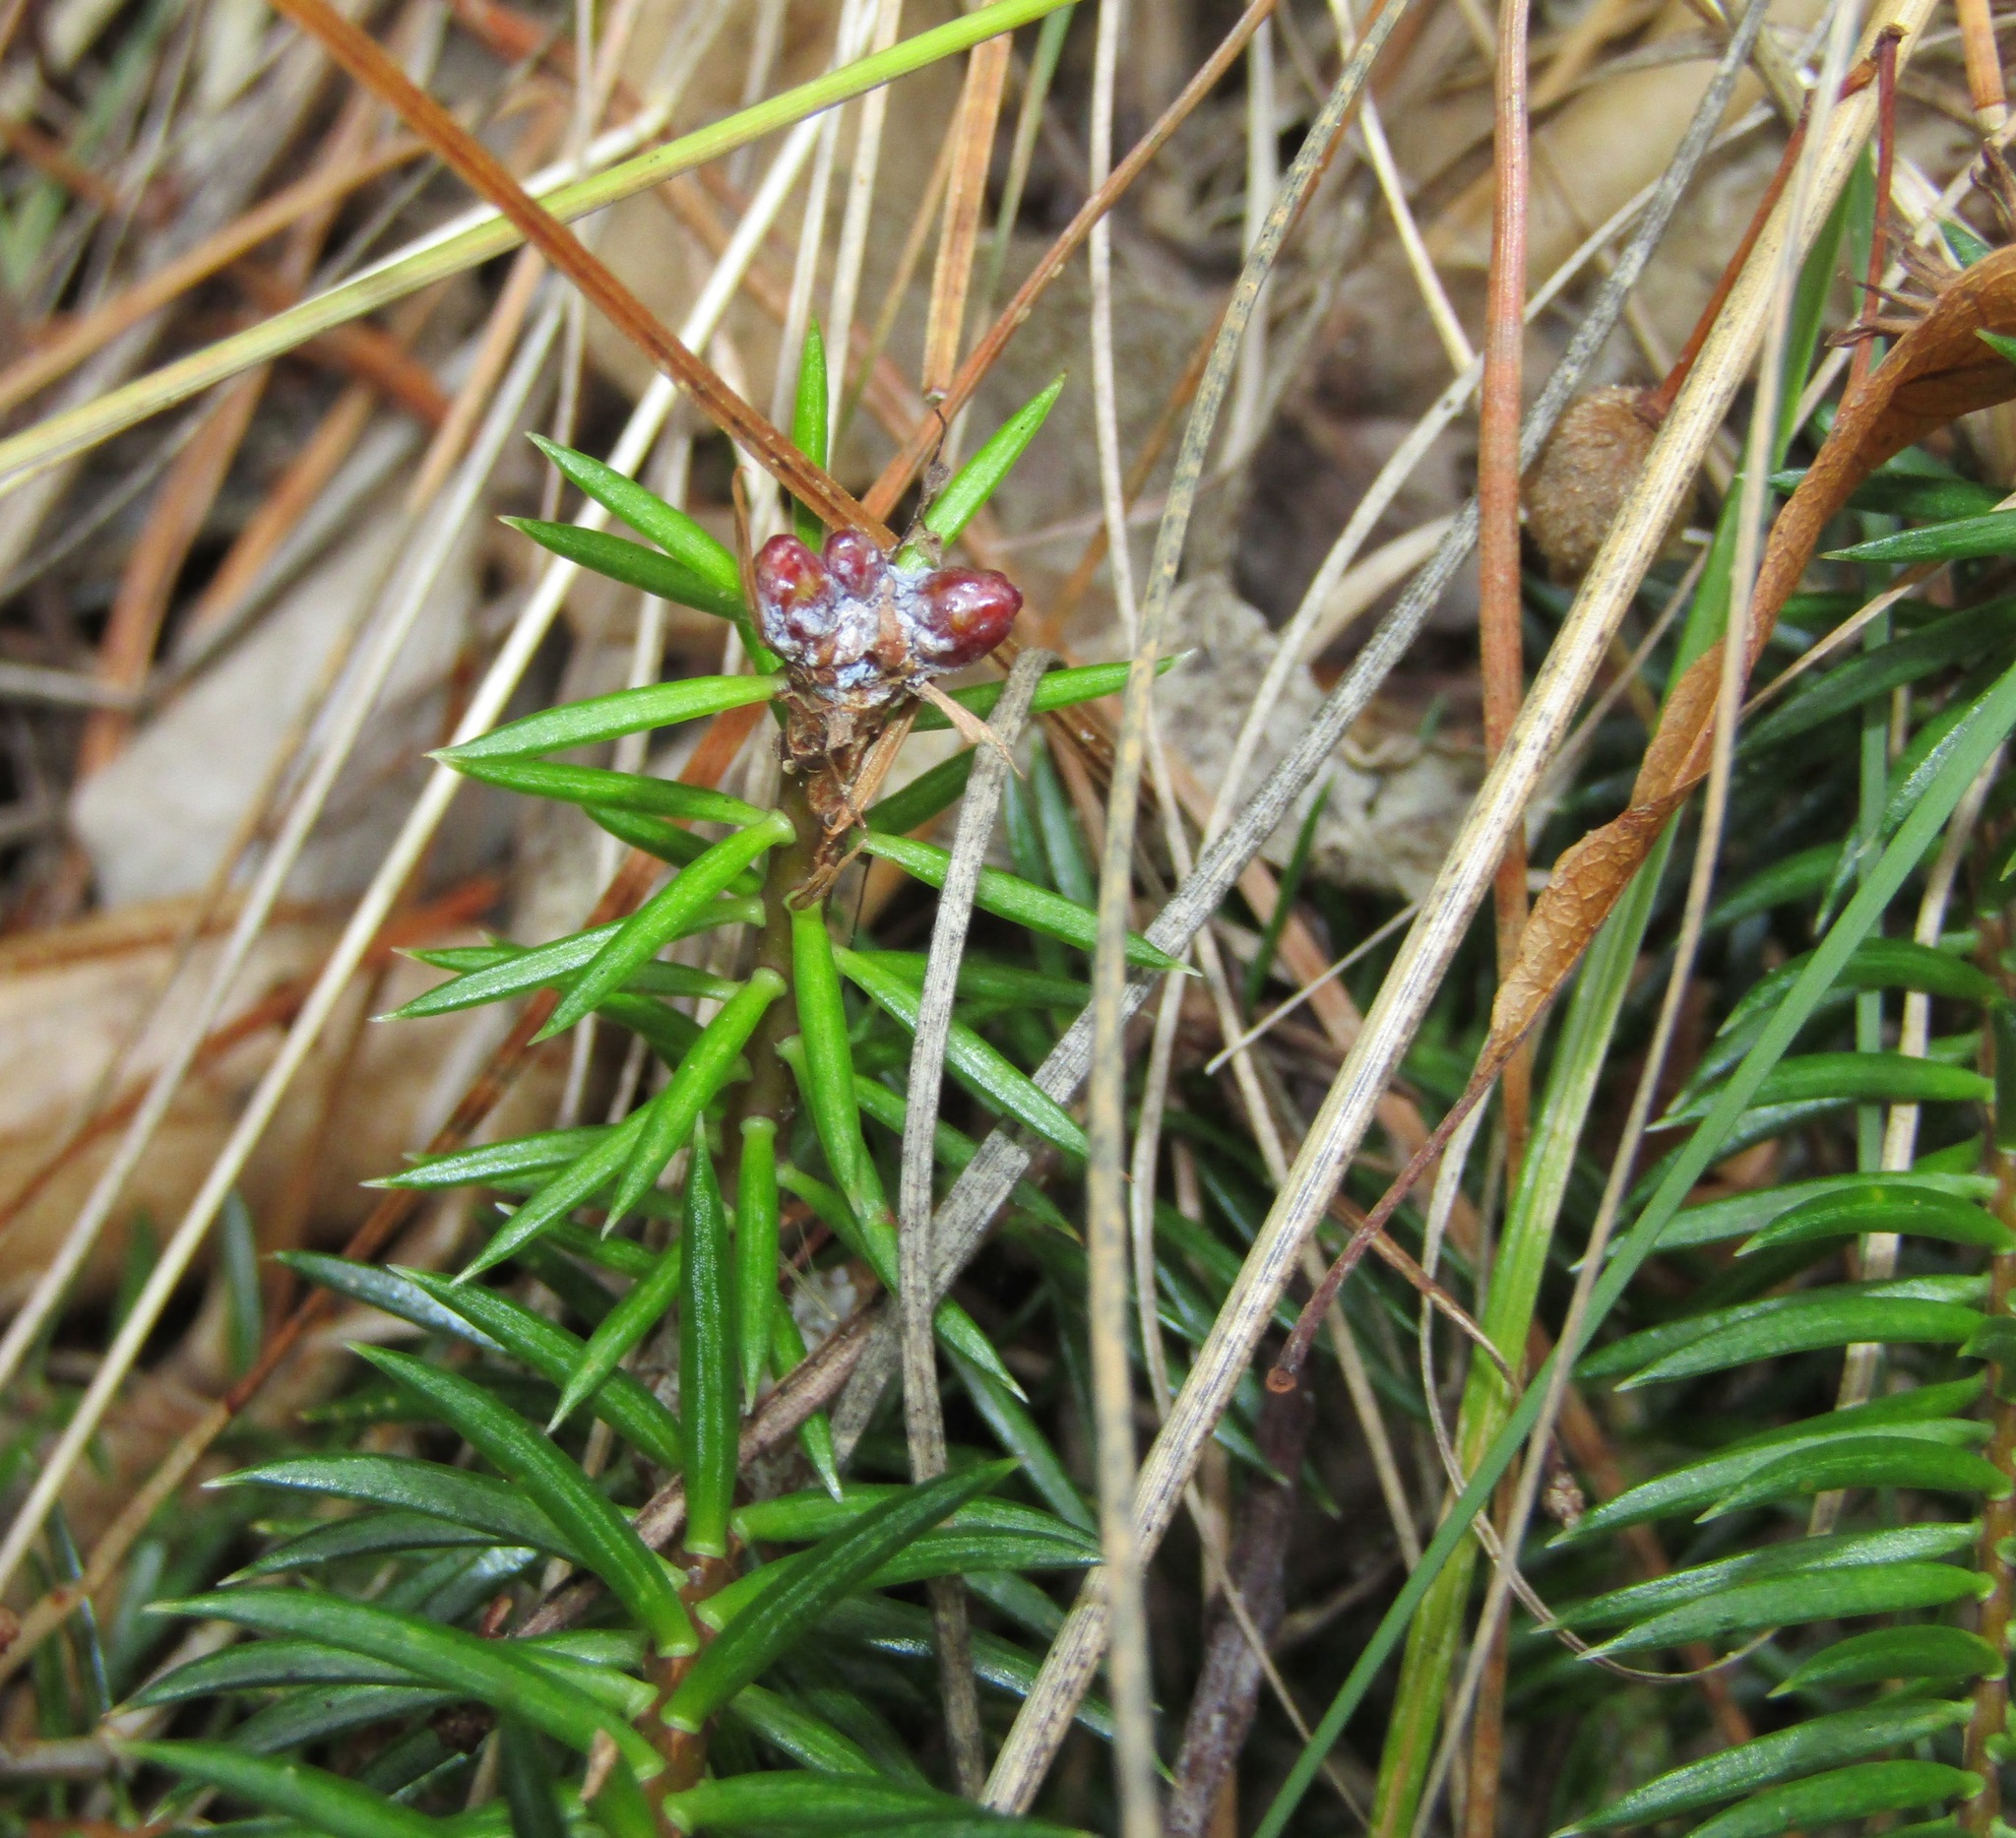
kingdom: Plantae
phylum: Tracheophyta
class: Pinopsida
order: Pinales
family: Podocarpaceae
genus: Podocarpus
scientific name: Podocarpus totara
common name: Totara
